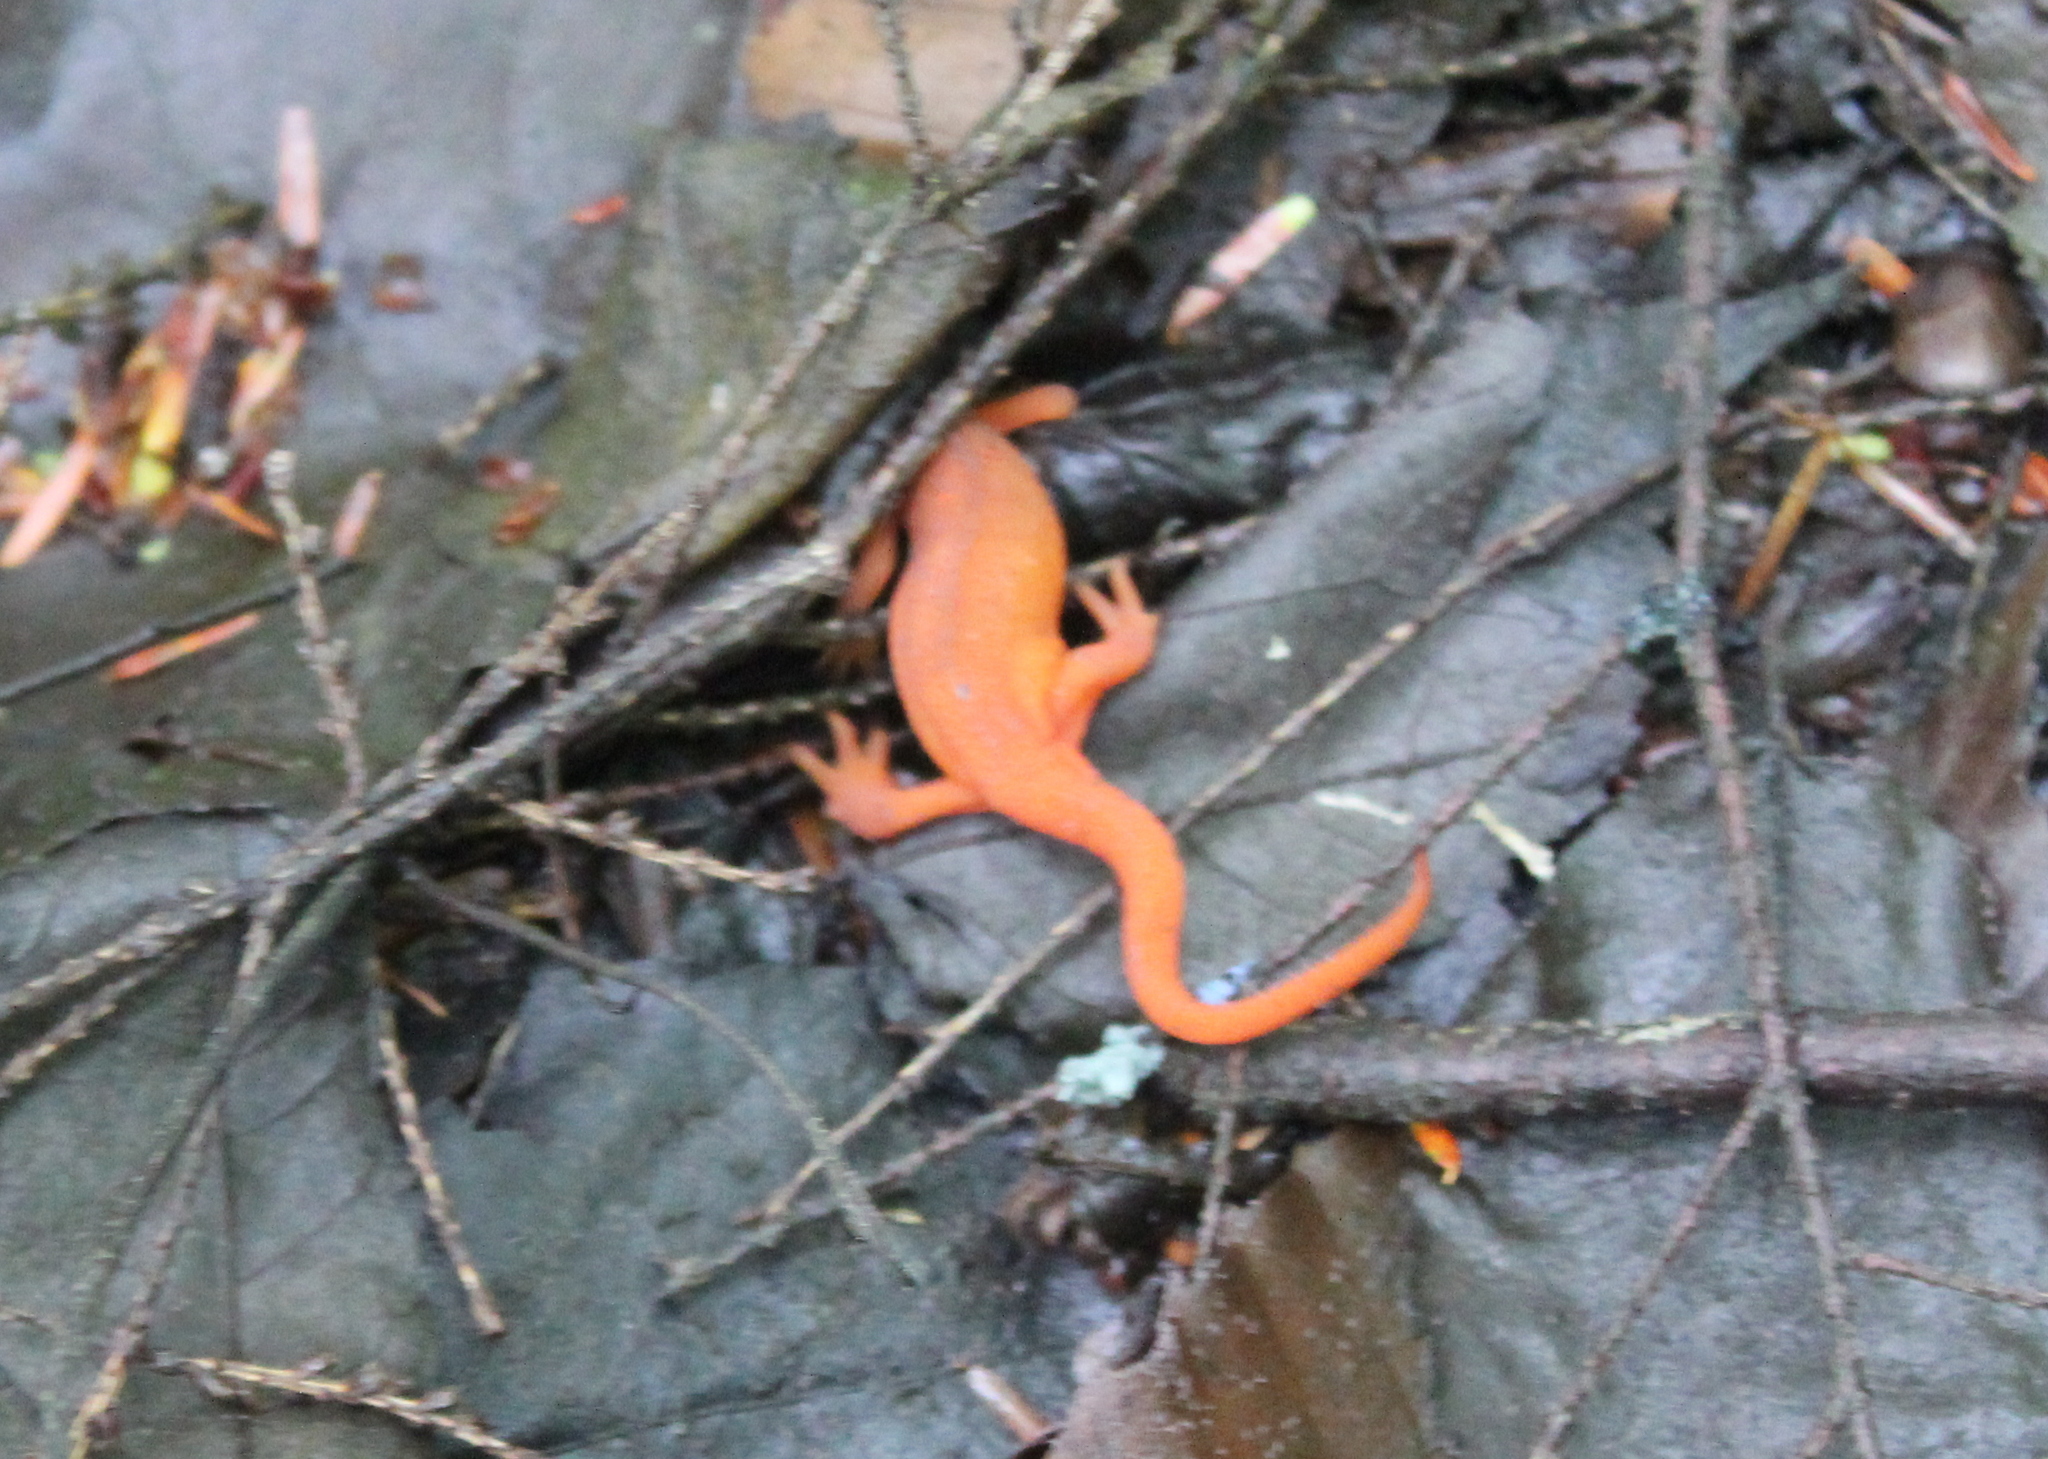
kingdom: Animalia
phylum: Chordata
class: Amphibia
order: Caudata
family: Salamandridae
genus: Notophthalmus
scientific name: Notophthalmus viridescens
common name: Eastern newt
